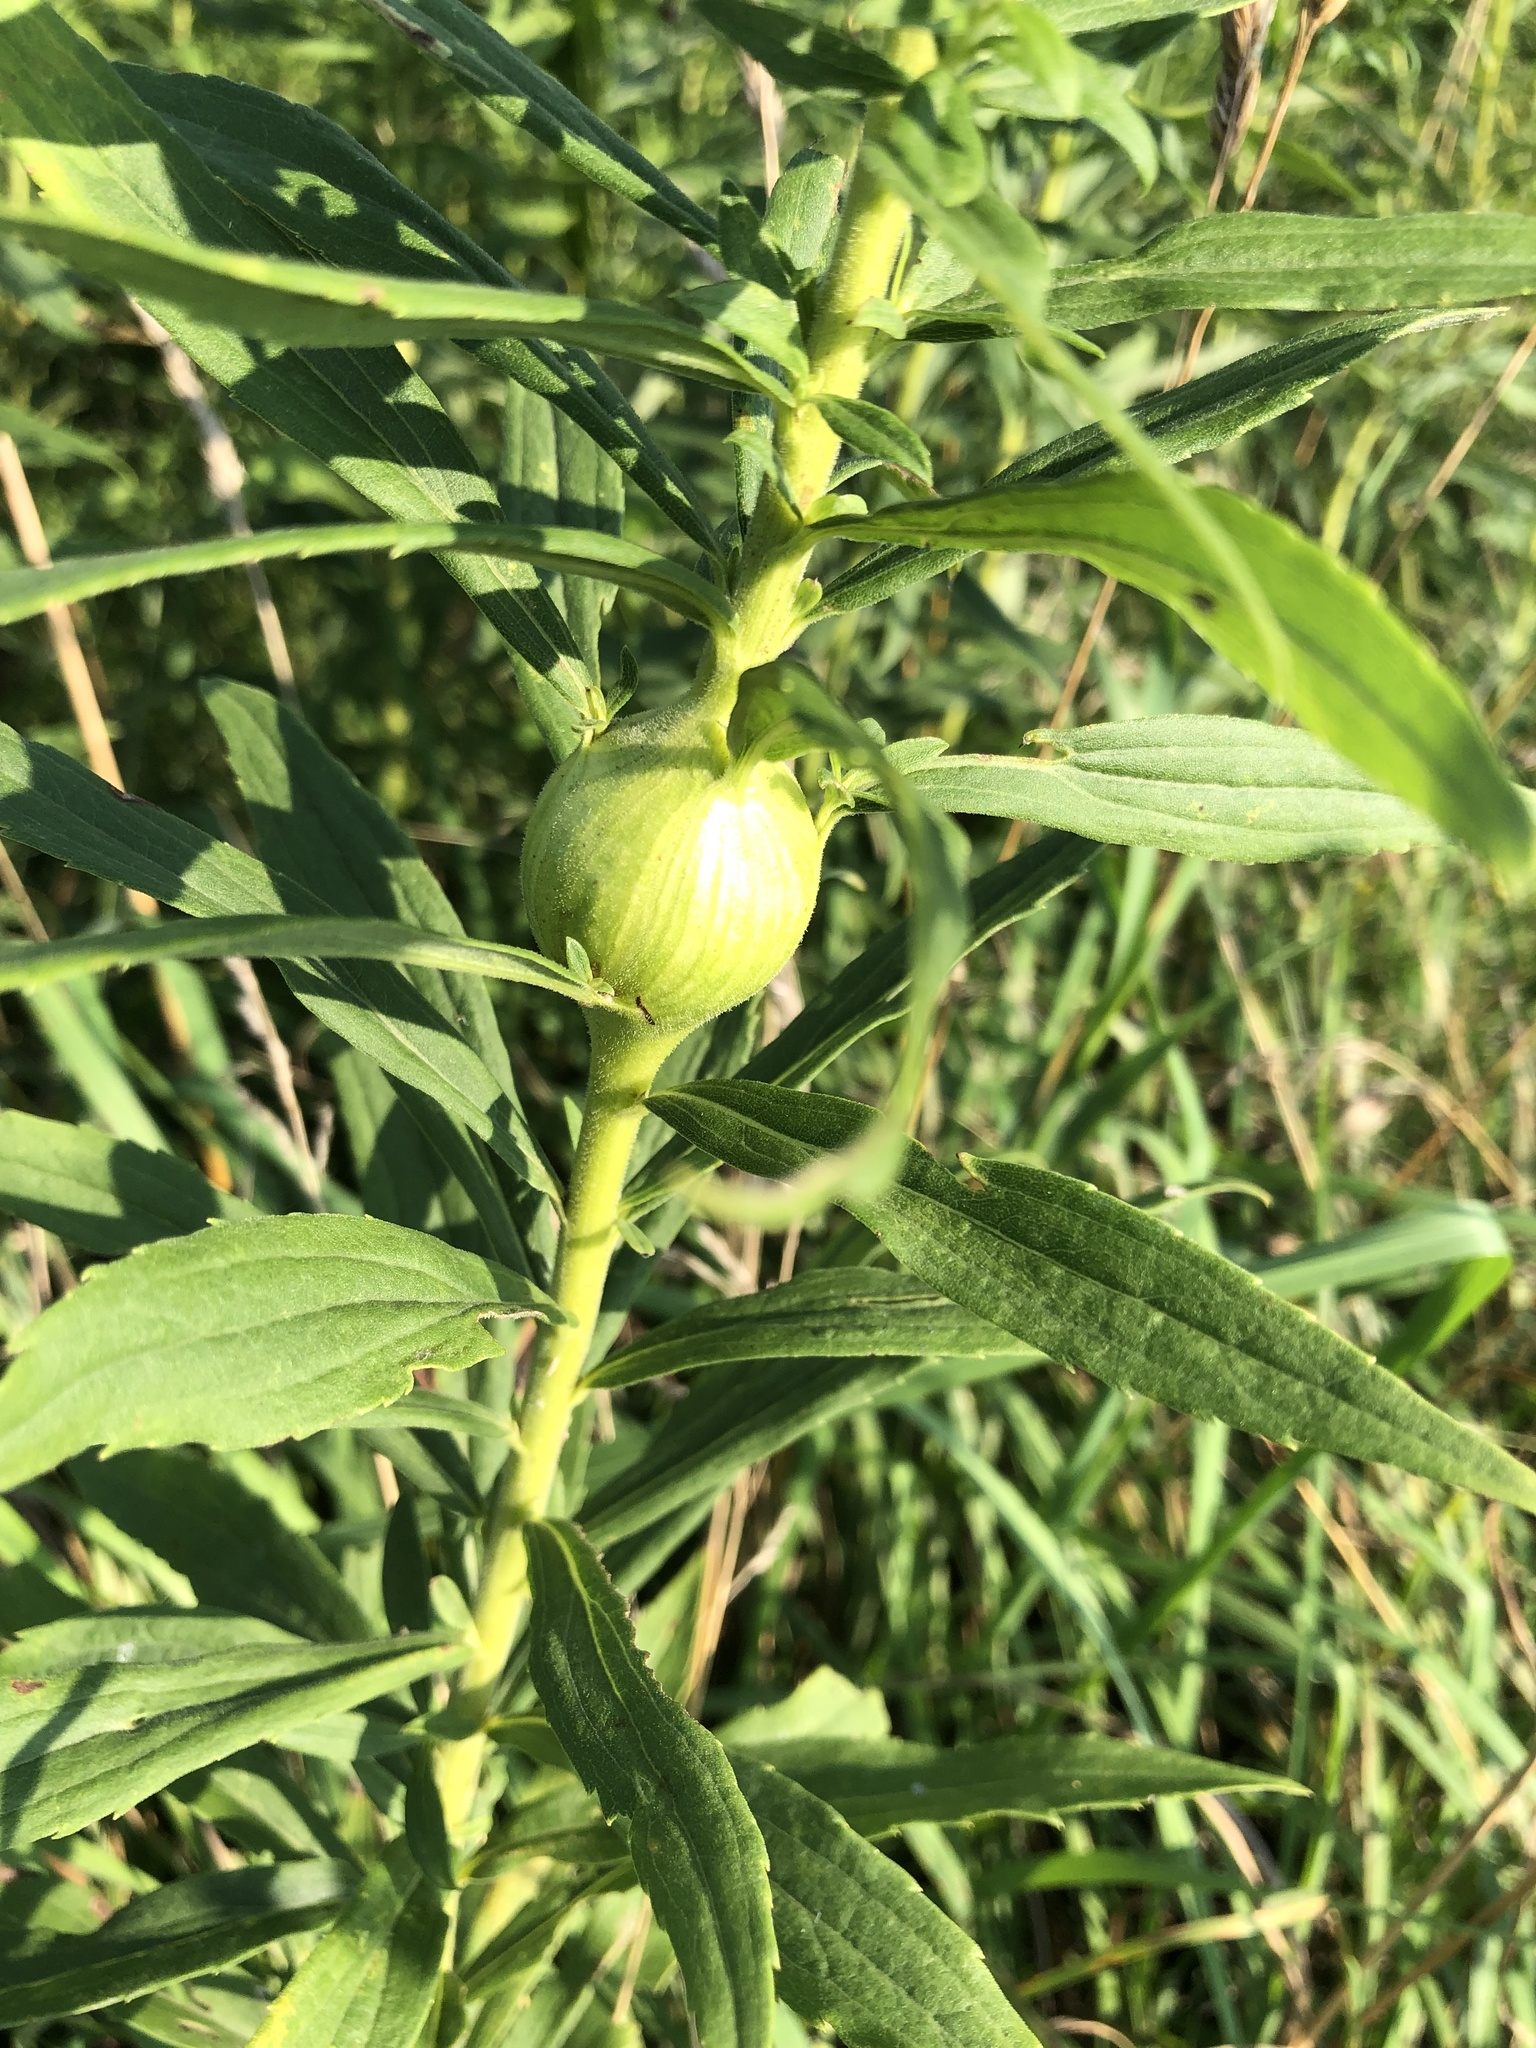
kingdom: Animalia
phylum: Arthropoda
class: Insecta
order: Diptera
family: Tephritidae
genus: Eurosta
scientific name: Eurosta solidaginis
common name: Goldenrod gall fly
